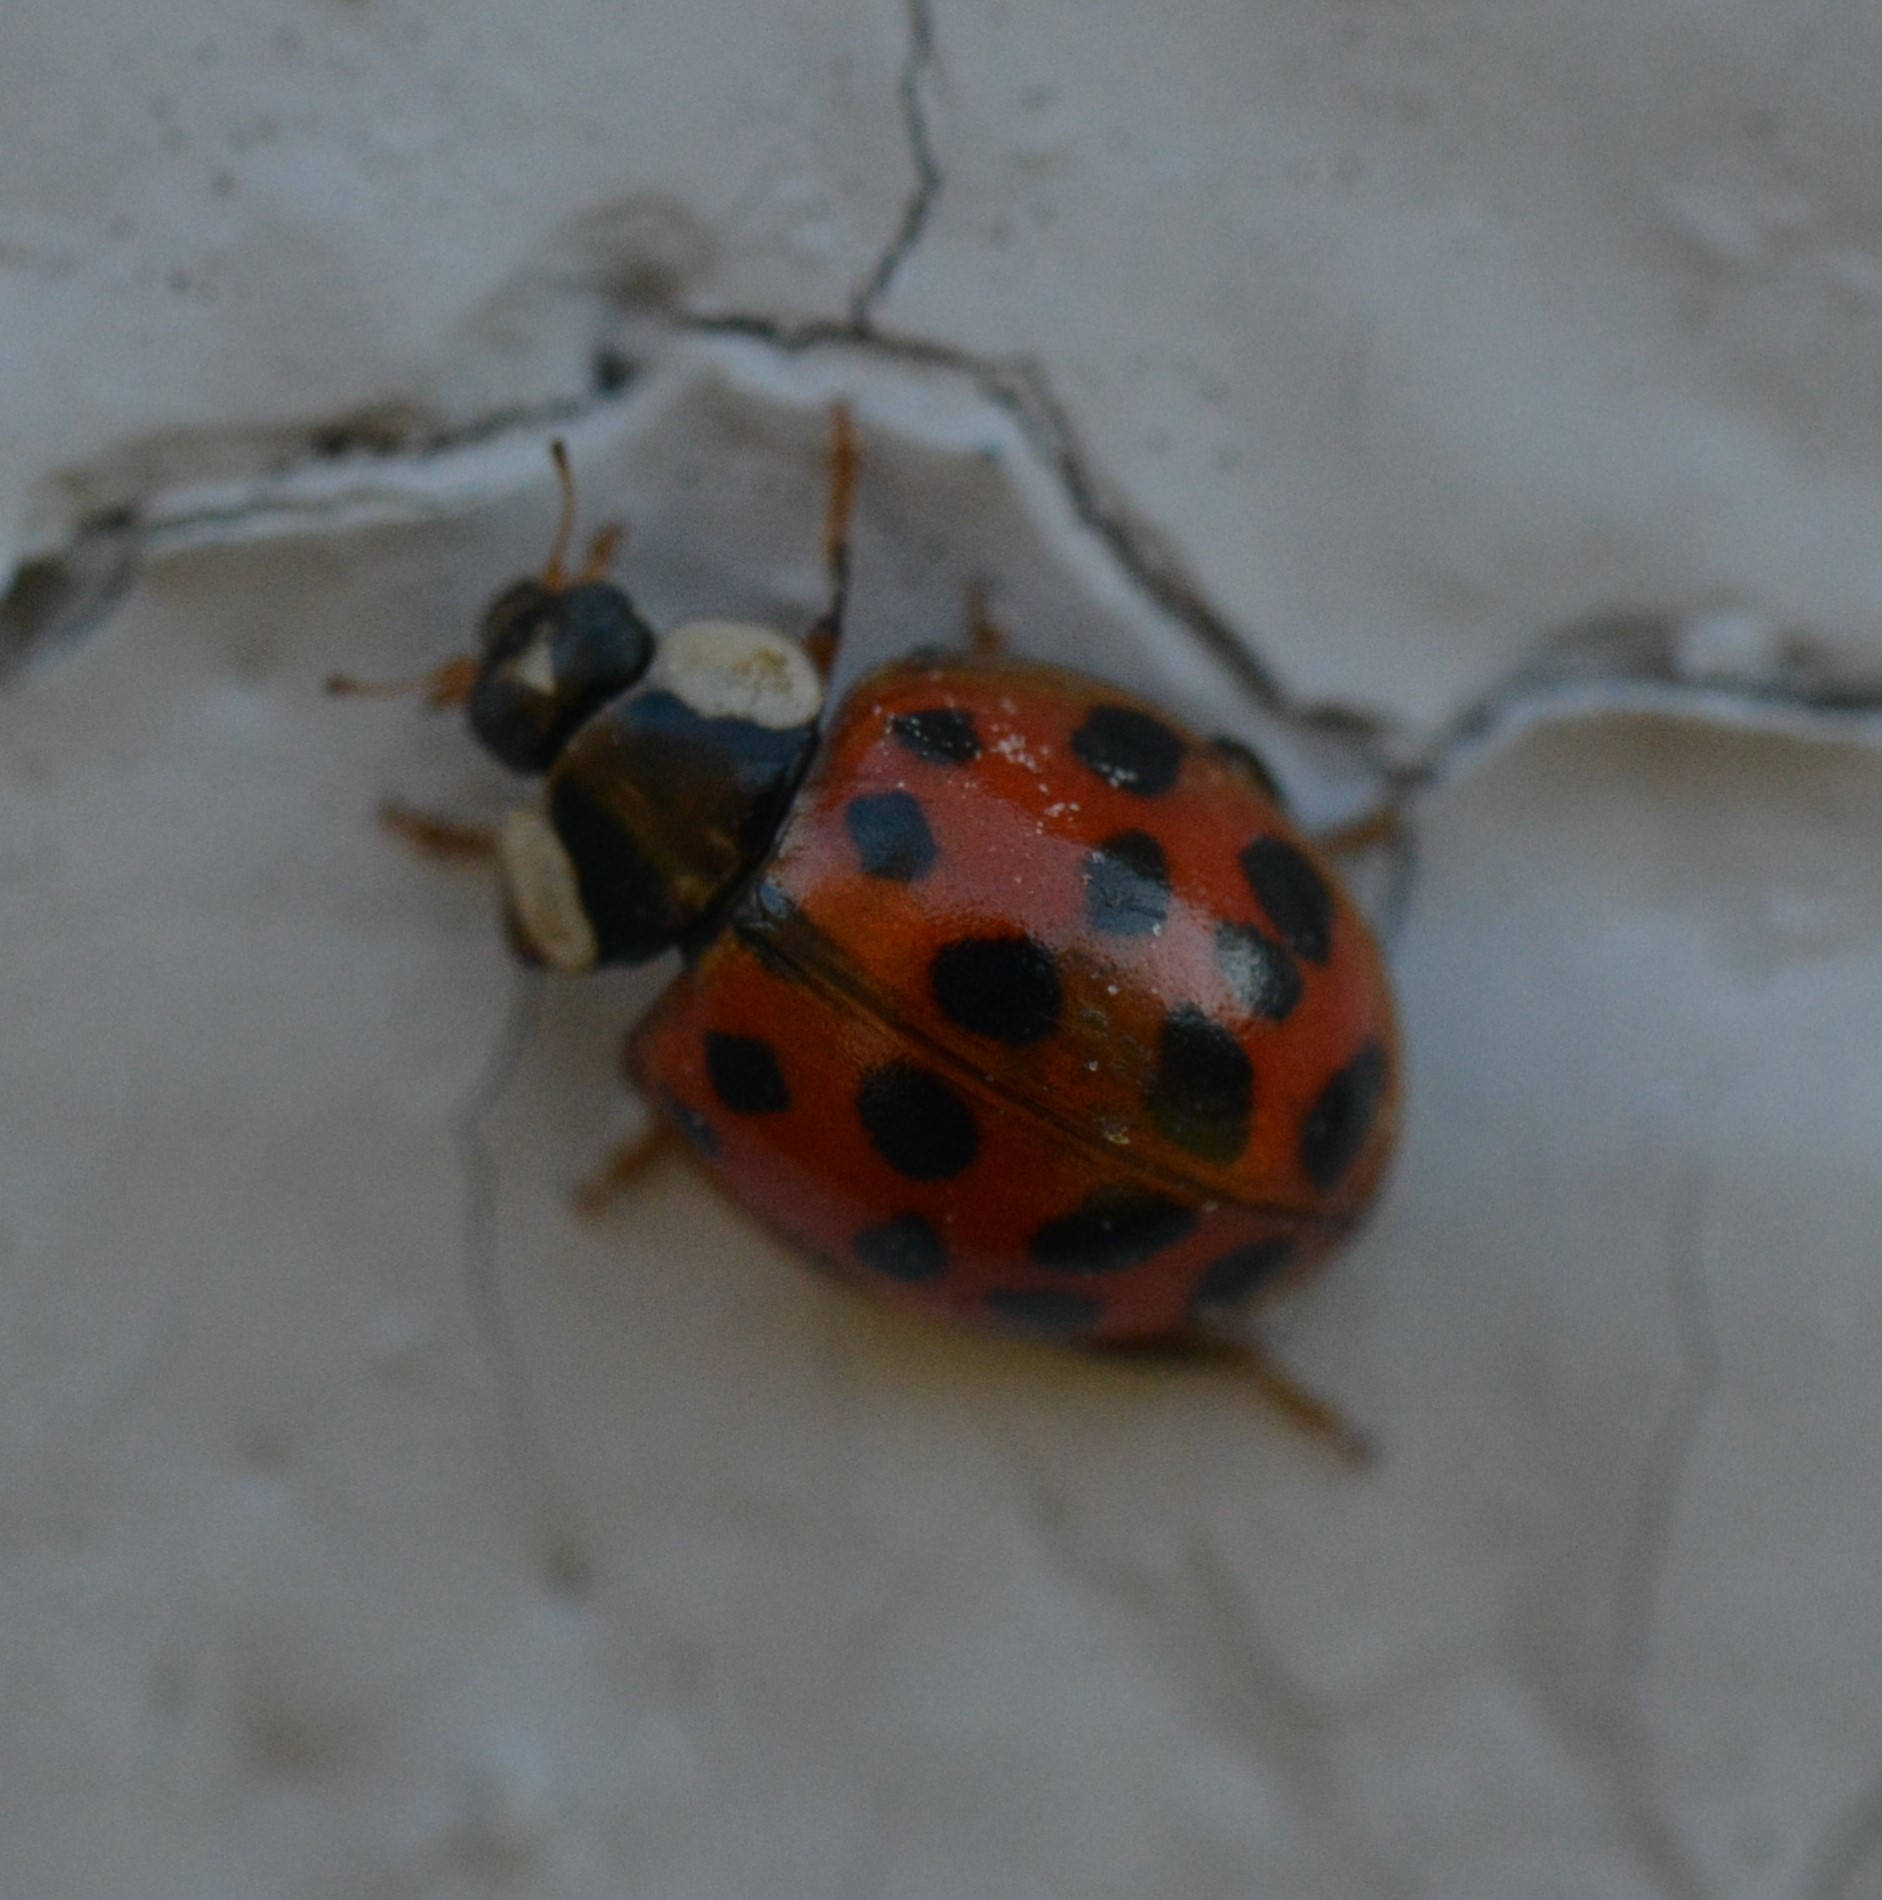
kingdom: Animalia
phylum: Arthropoda
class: Insecta
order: Coleoptera
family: Coccinellidae
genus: Harmonia
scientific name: Harmonia axyridis
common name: Harlequin ladybird
